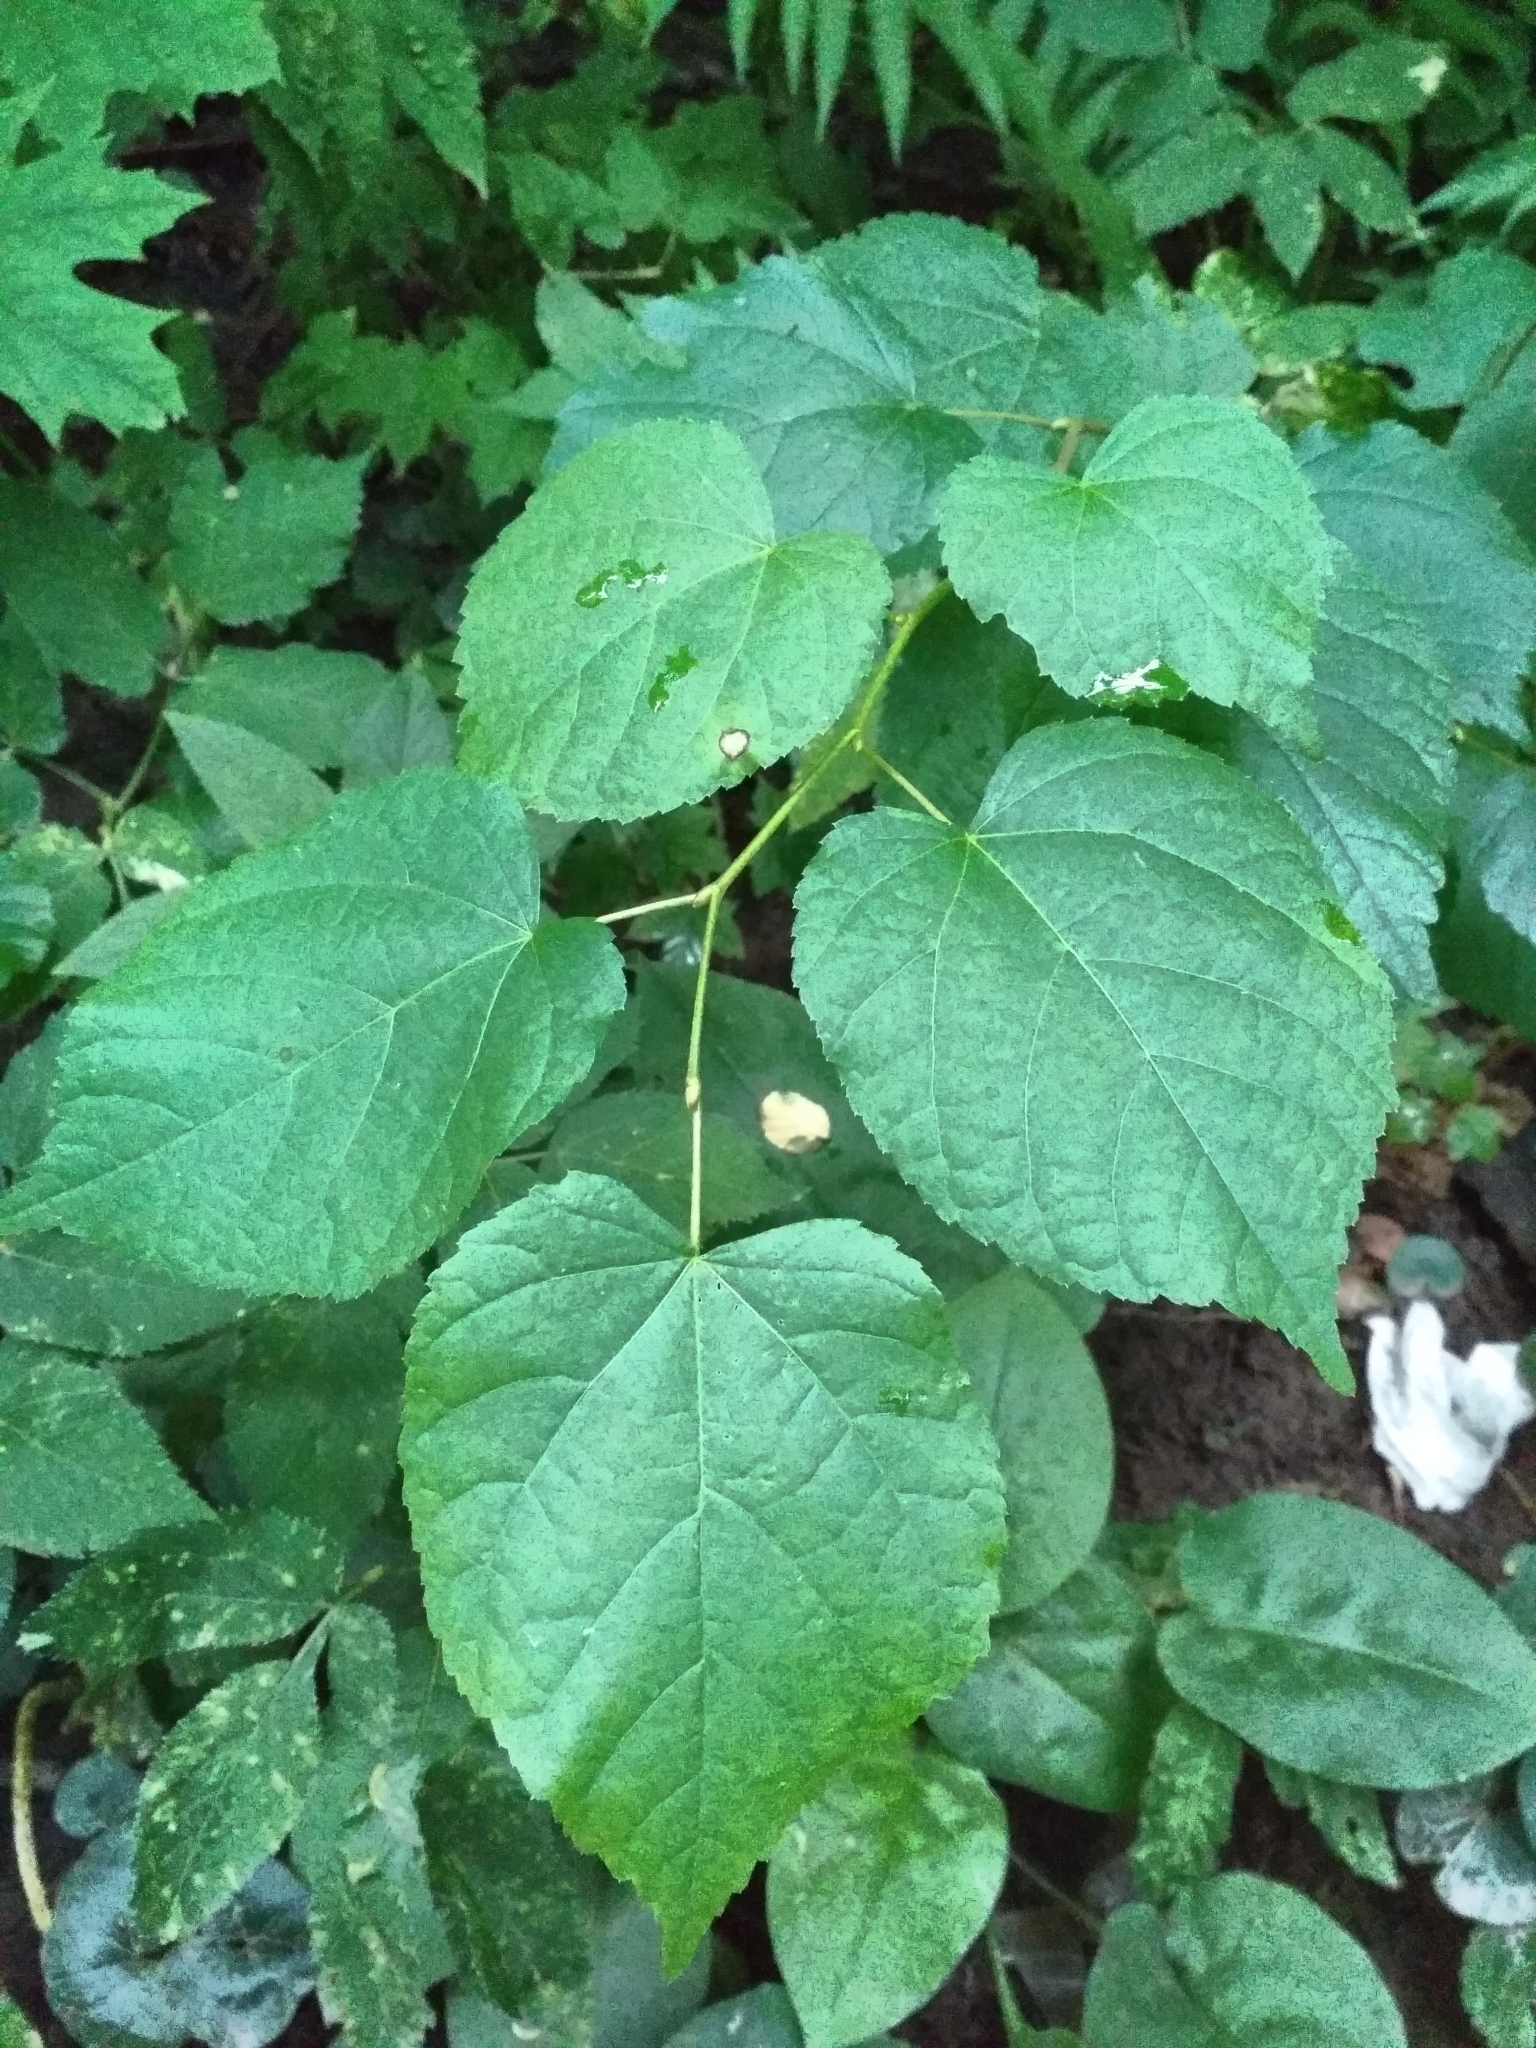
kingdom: Plantae
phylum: Tracheophyta
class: Magnoliopsida
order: Malvales
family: Malvaceae
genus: Tilia
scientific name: Tilia cordata
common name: Small-leaved lime
